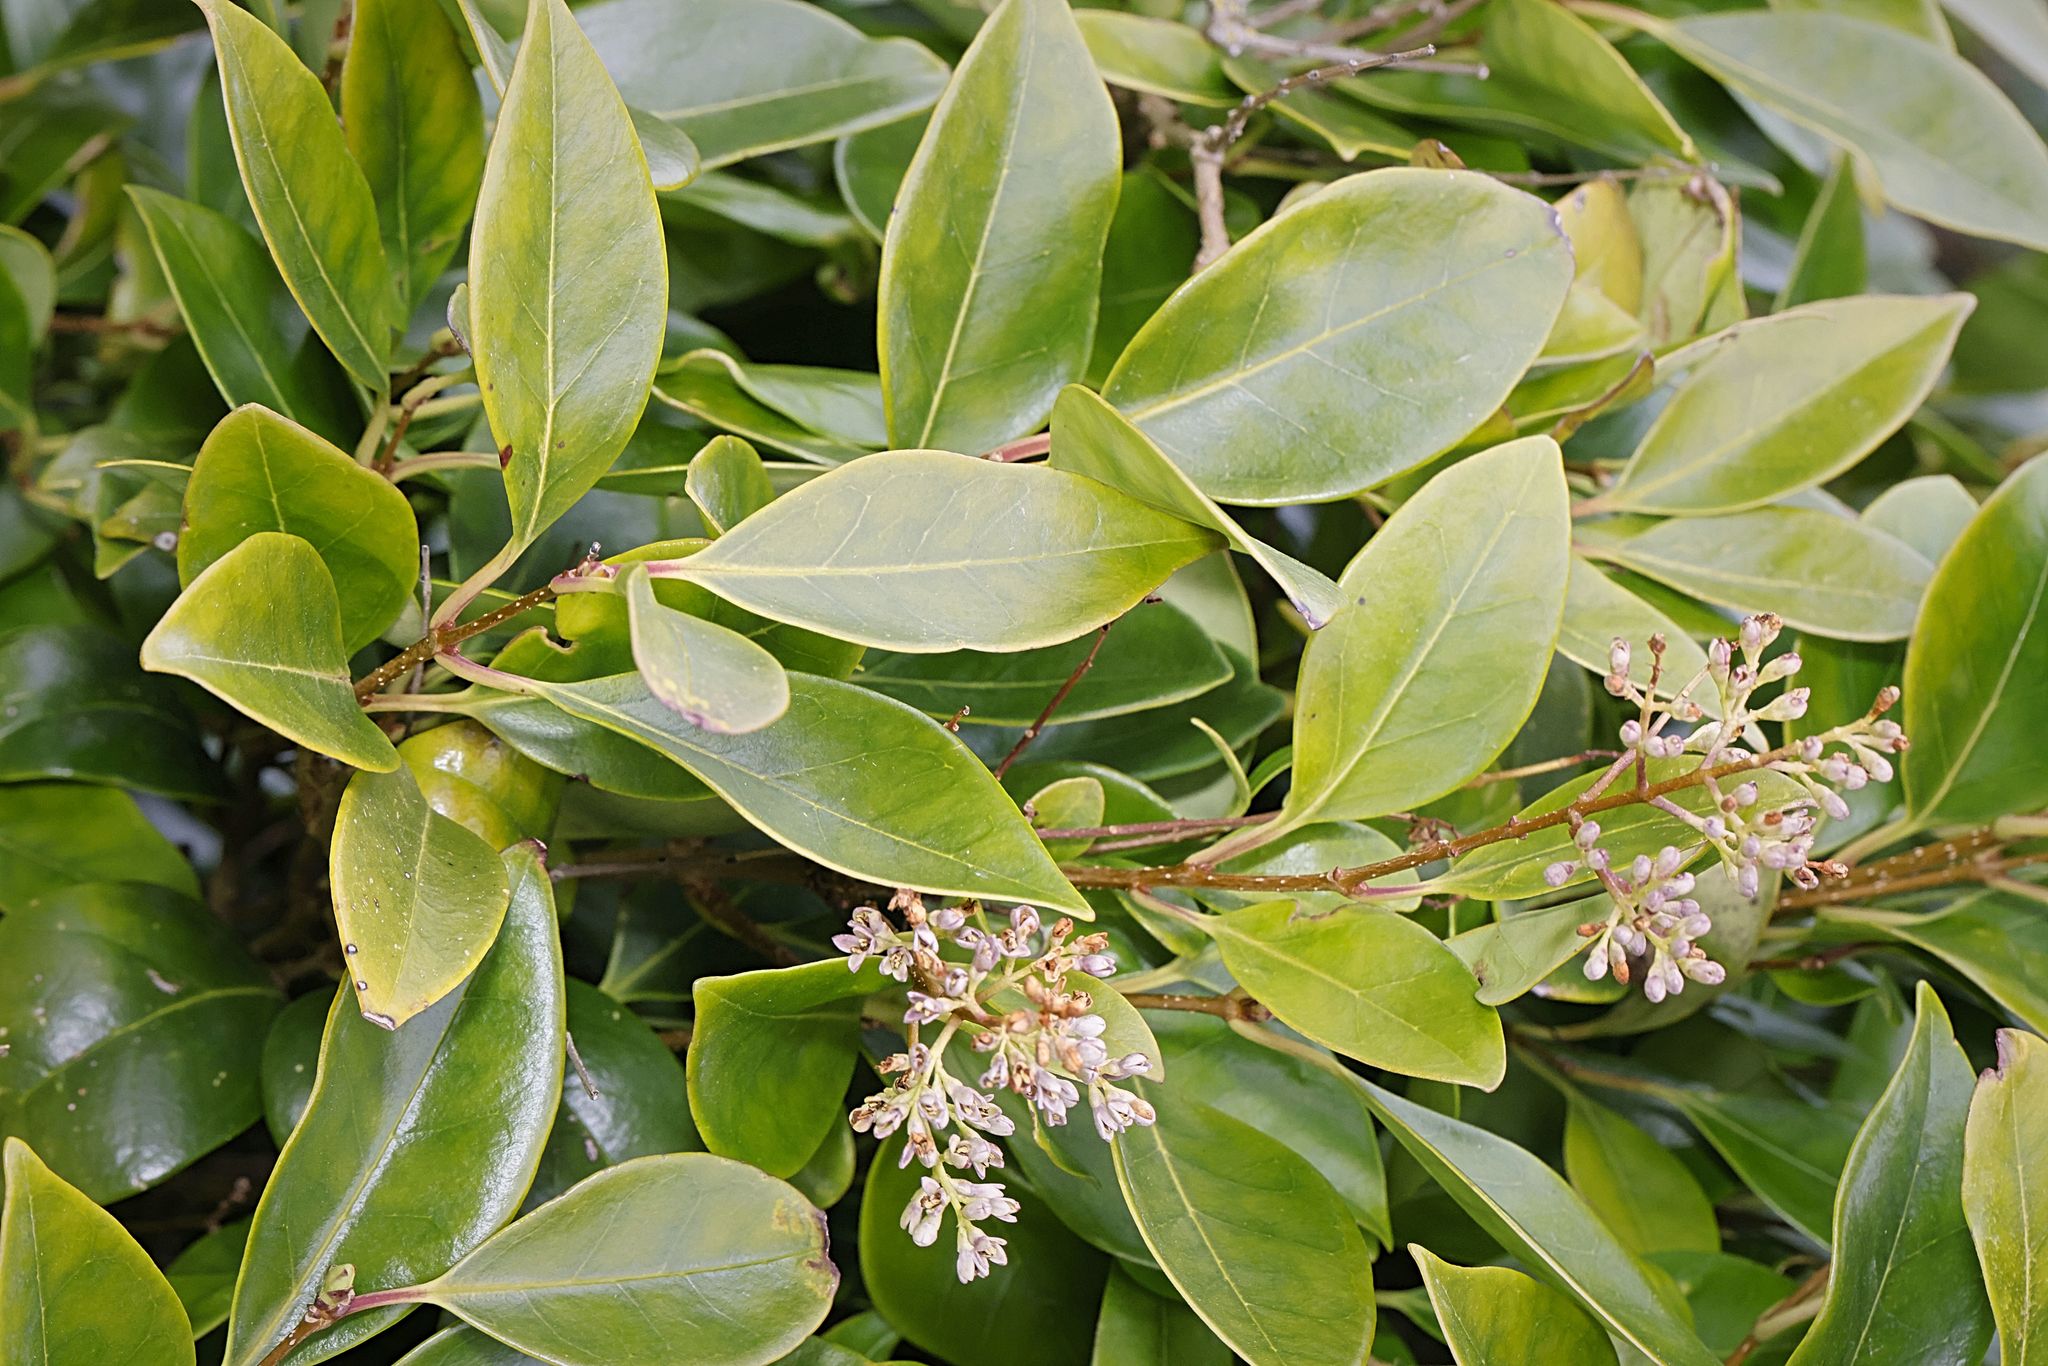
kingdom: Plantae
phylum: Tracheophyta
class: Magnoliopsida
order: Lamiales
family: Oleaceae
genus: Ligustrum
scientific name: Ligustrum ovalifolium
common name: California privet
